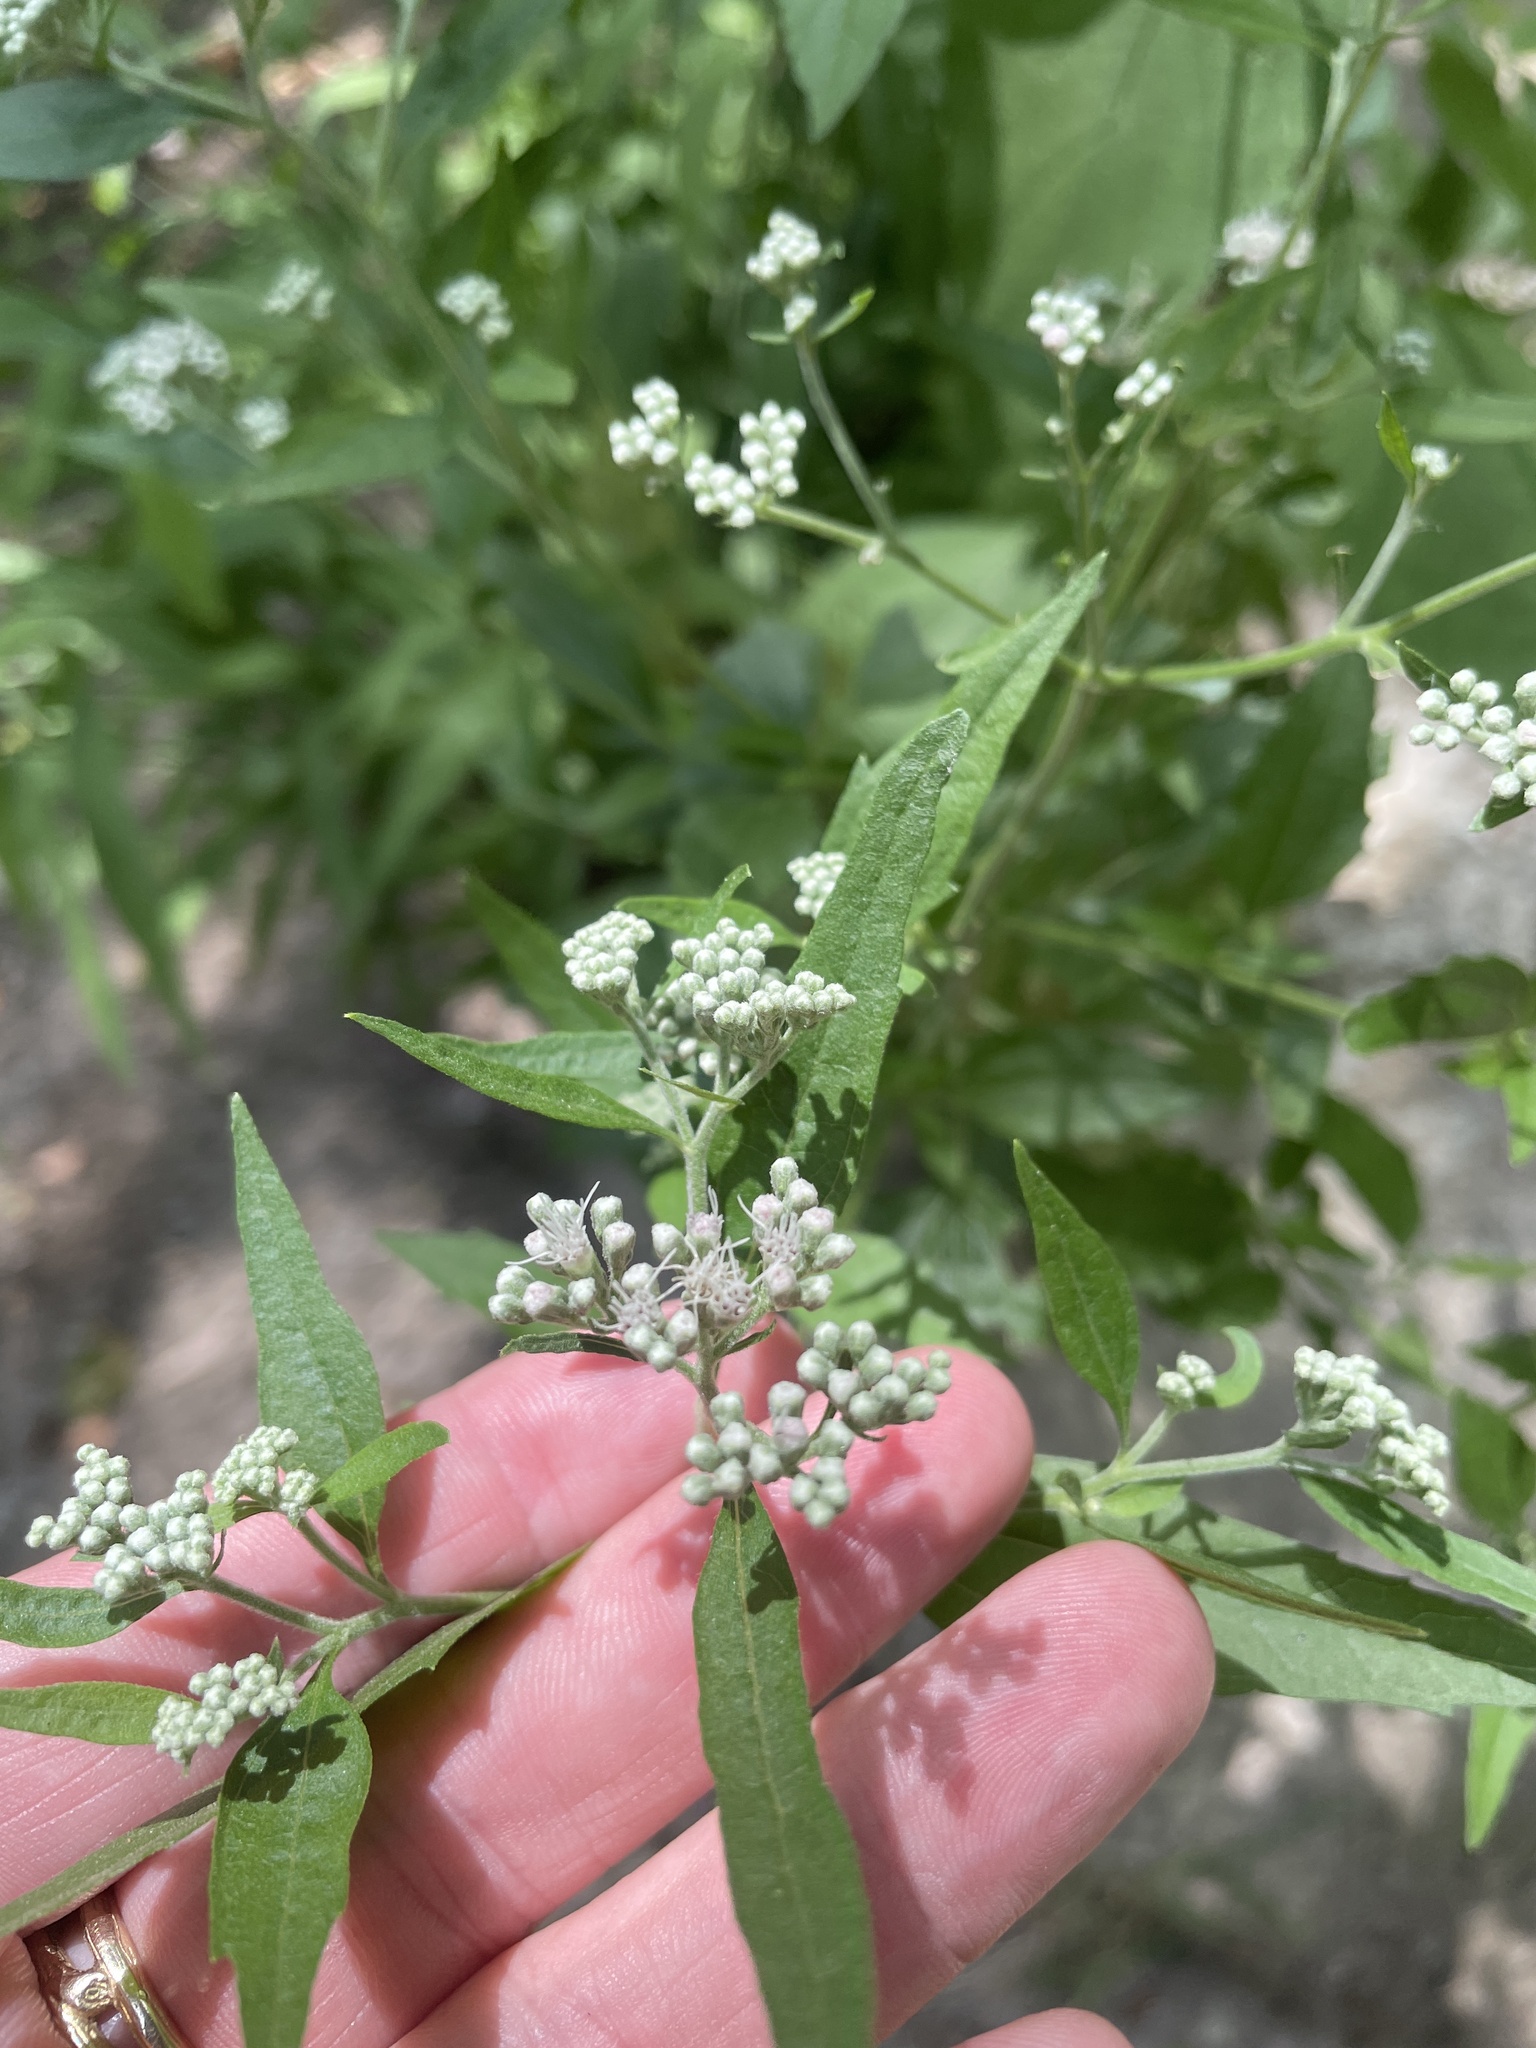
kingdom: Plantae
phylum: Tracheophyta
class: Magnoliopsida
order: Asterales
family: Asteraceae
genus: Eupatorium
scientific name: Eupatorium serotinum
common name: Late boneset
